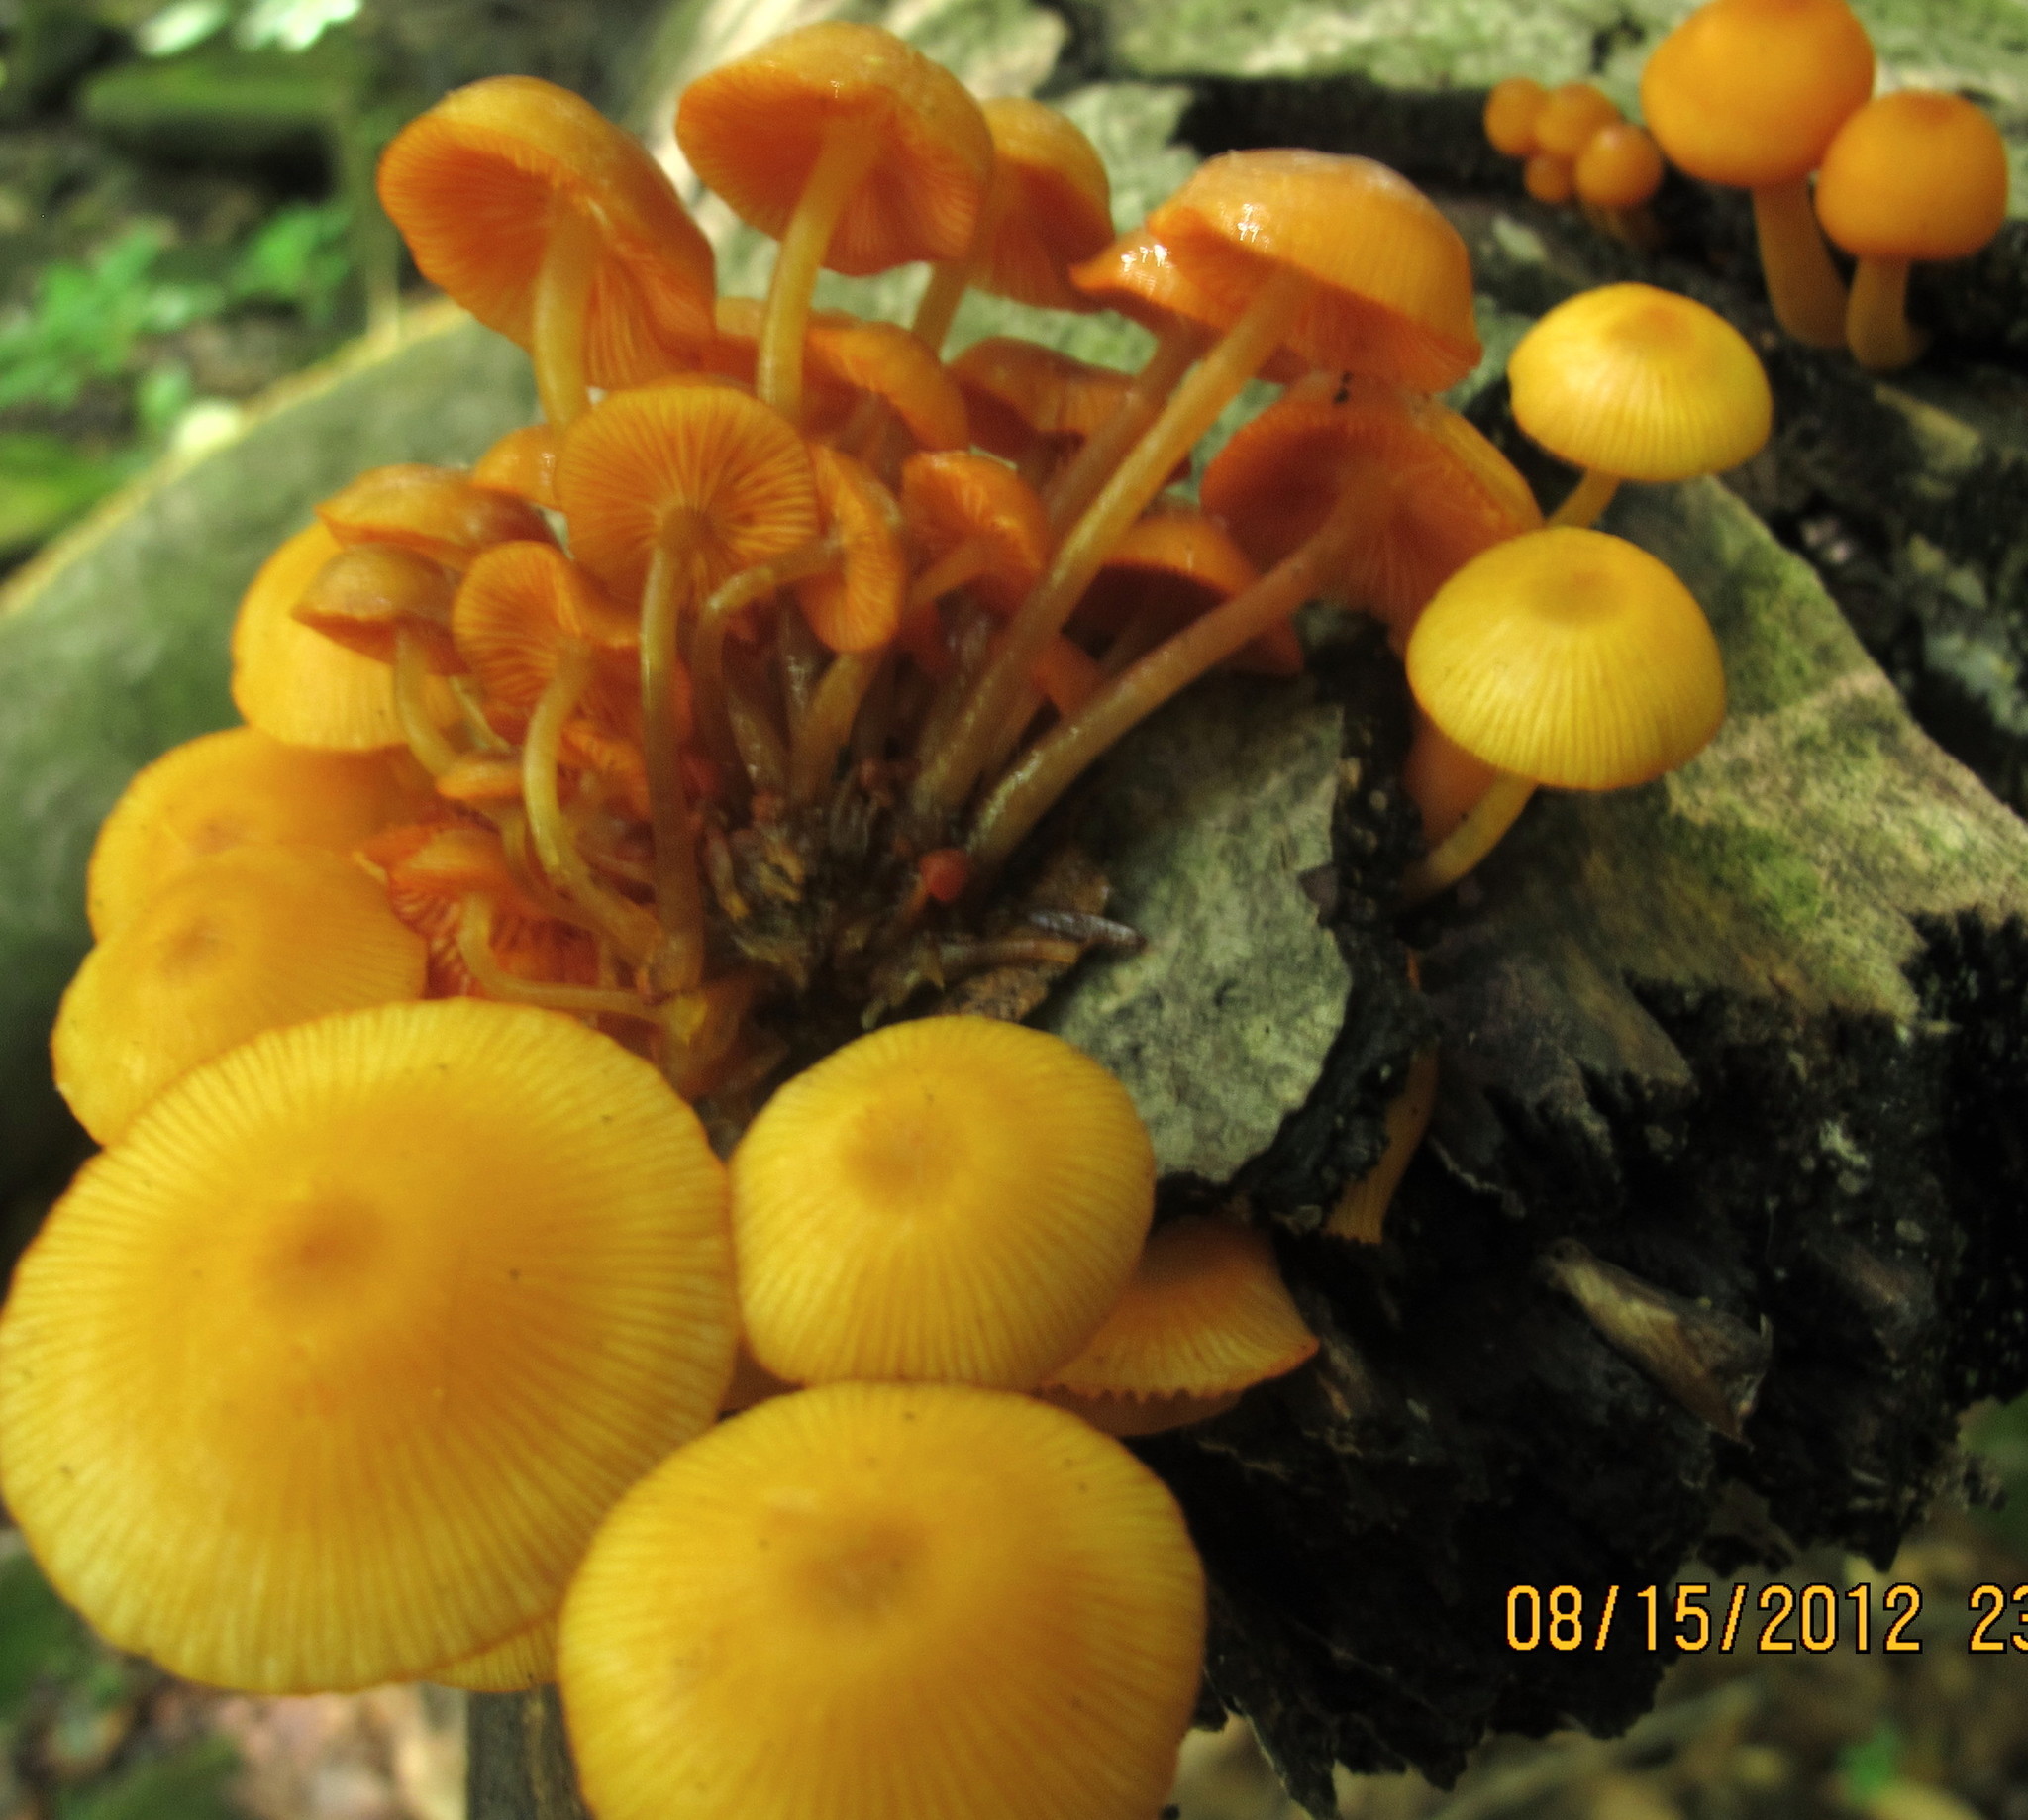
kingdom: Fungi
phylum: Basidiomycota
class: Agaricomycetes
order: Agaricales
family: Mycenaceae
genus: Mycena
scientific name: Mycena leaiana
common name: Orange mycena
